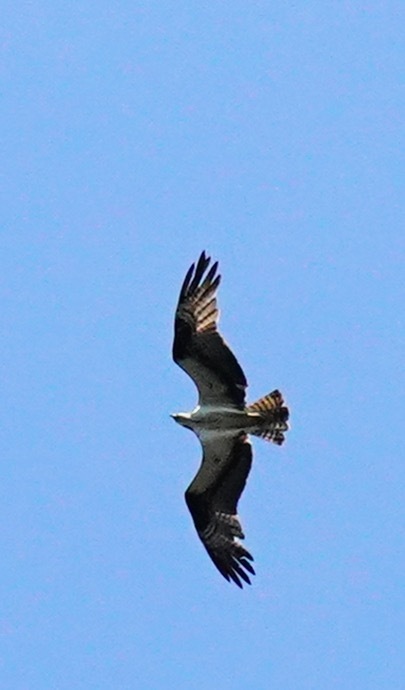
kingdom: Animalia
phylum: Chordata
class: Aves
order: Accipitriformes
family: Pandionidae
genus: Pandion
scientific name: Pandion haliaetus
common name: Osprey
